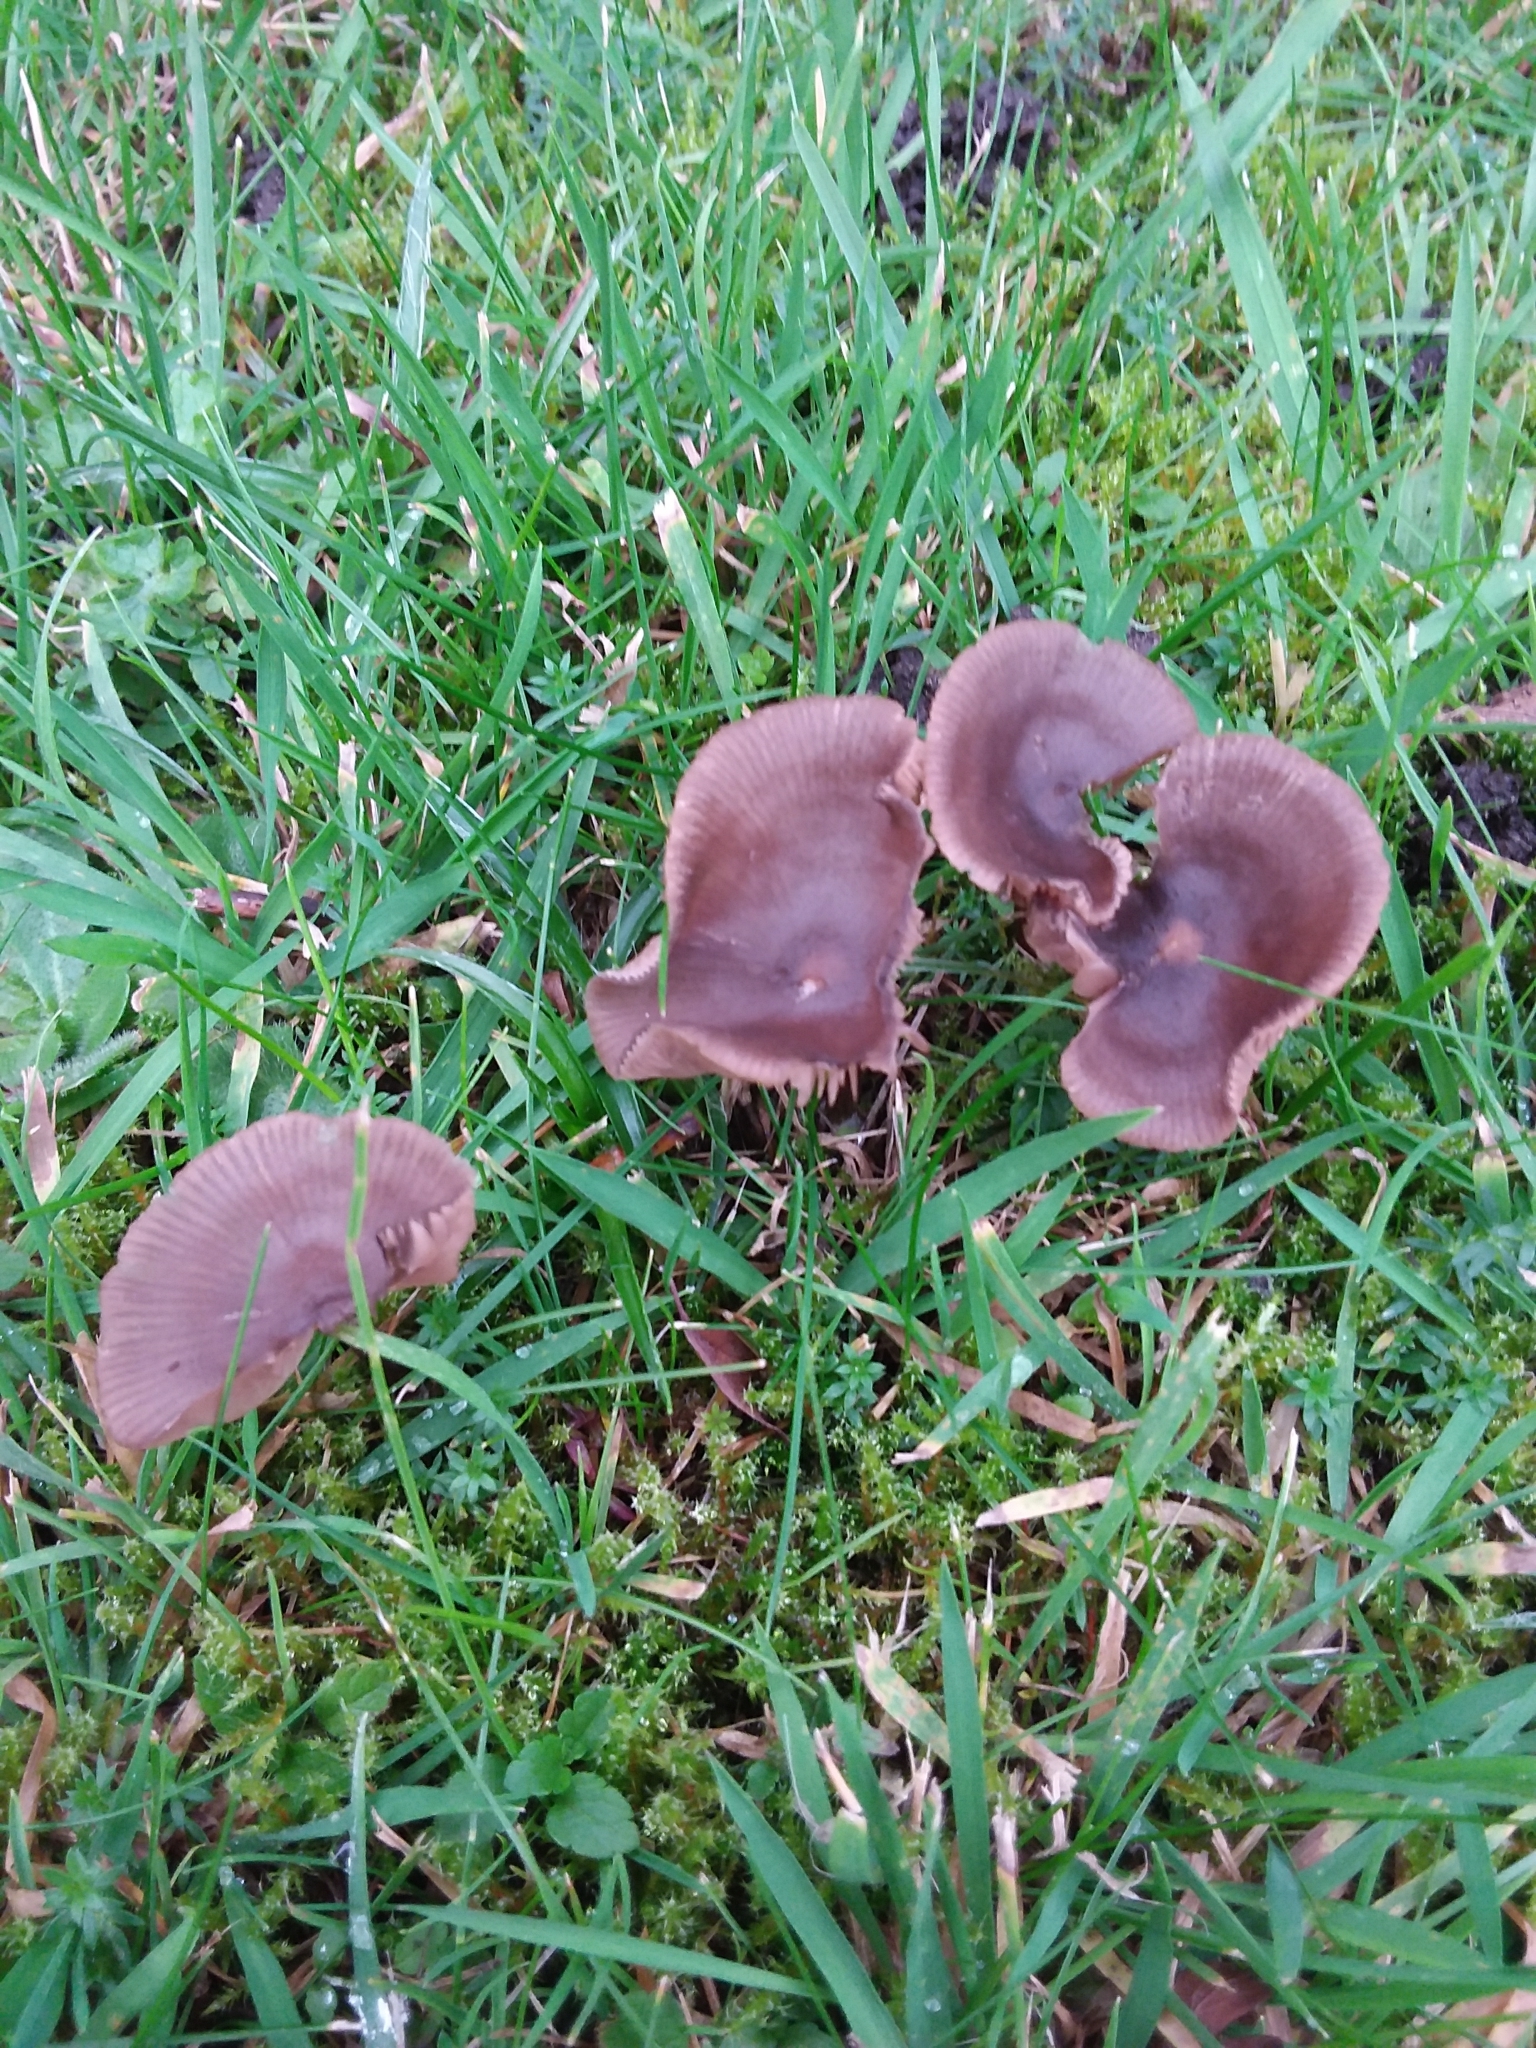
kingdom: Fungi
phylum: Basidiomycota
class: Agaricomycetes
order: Agaricales
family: Entolomataceae
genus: Entoloma
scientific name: Entoloma sericeum
